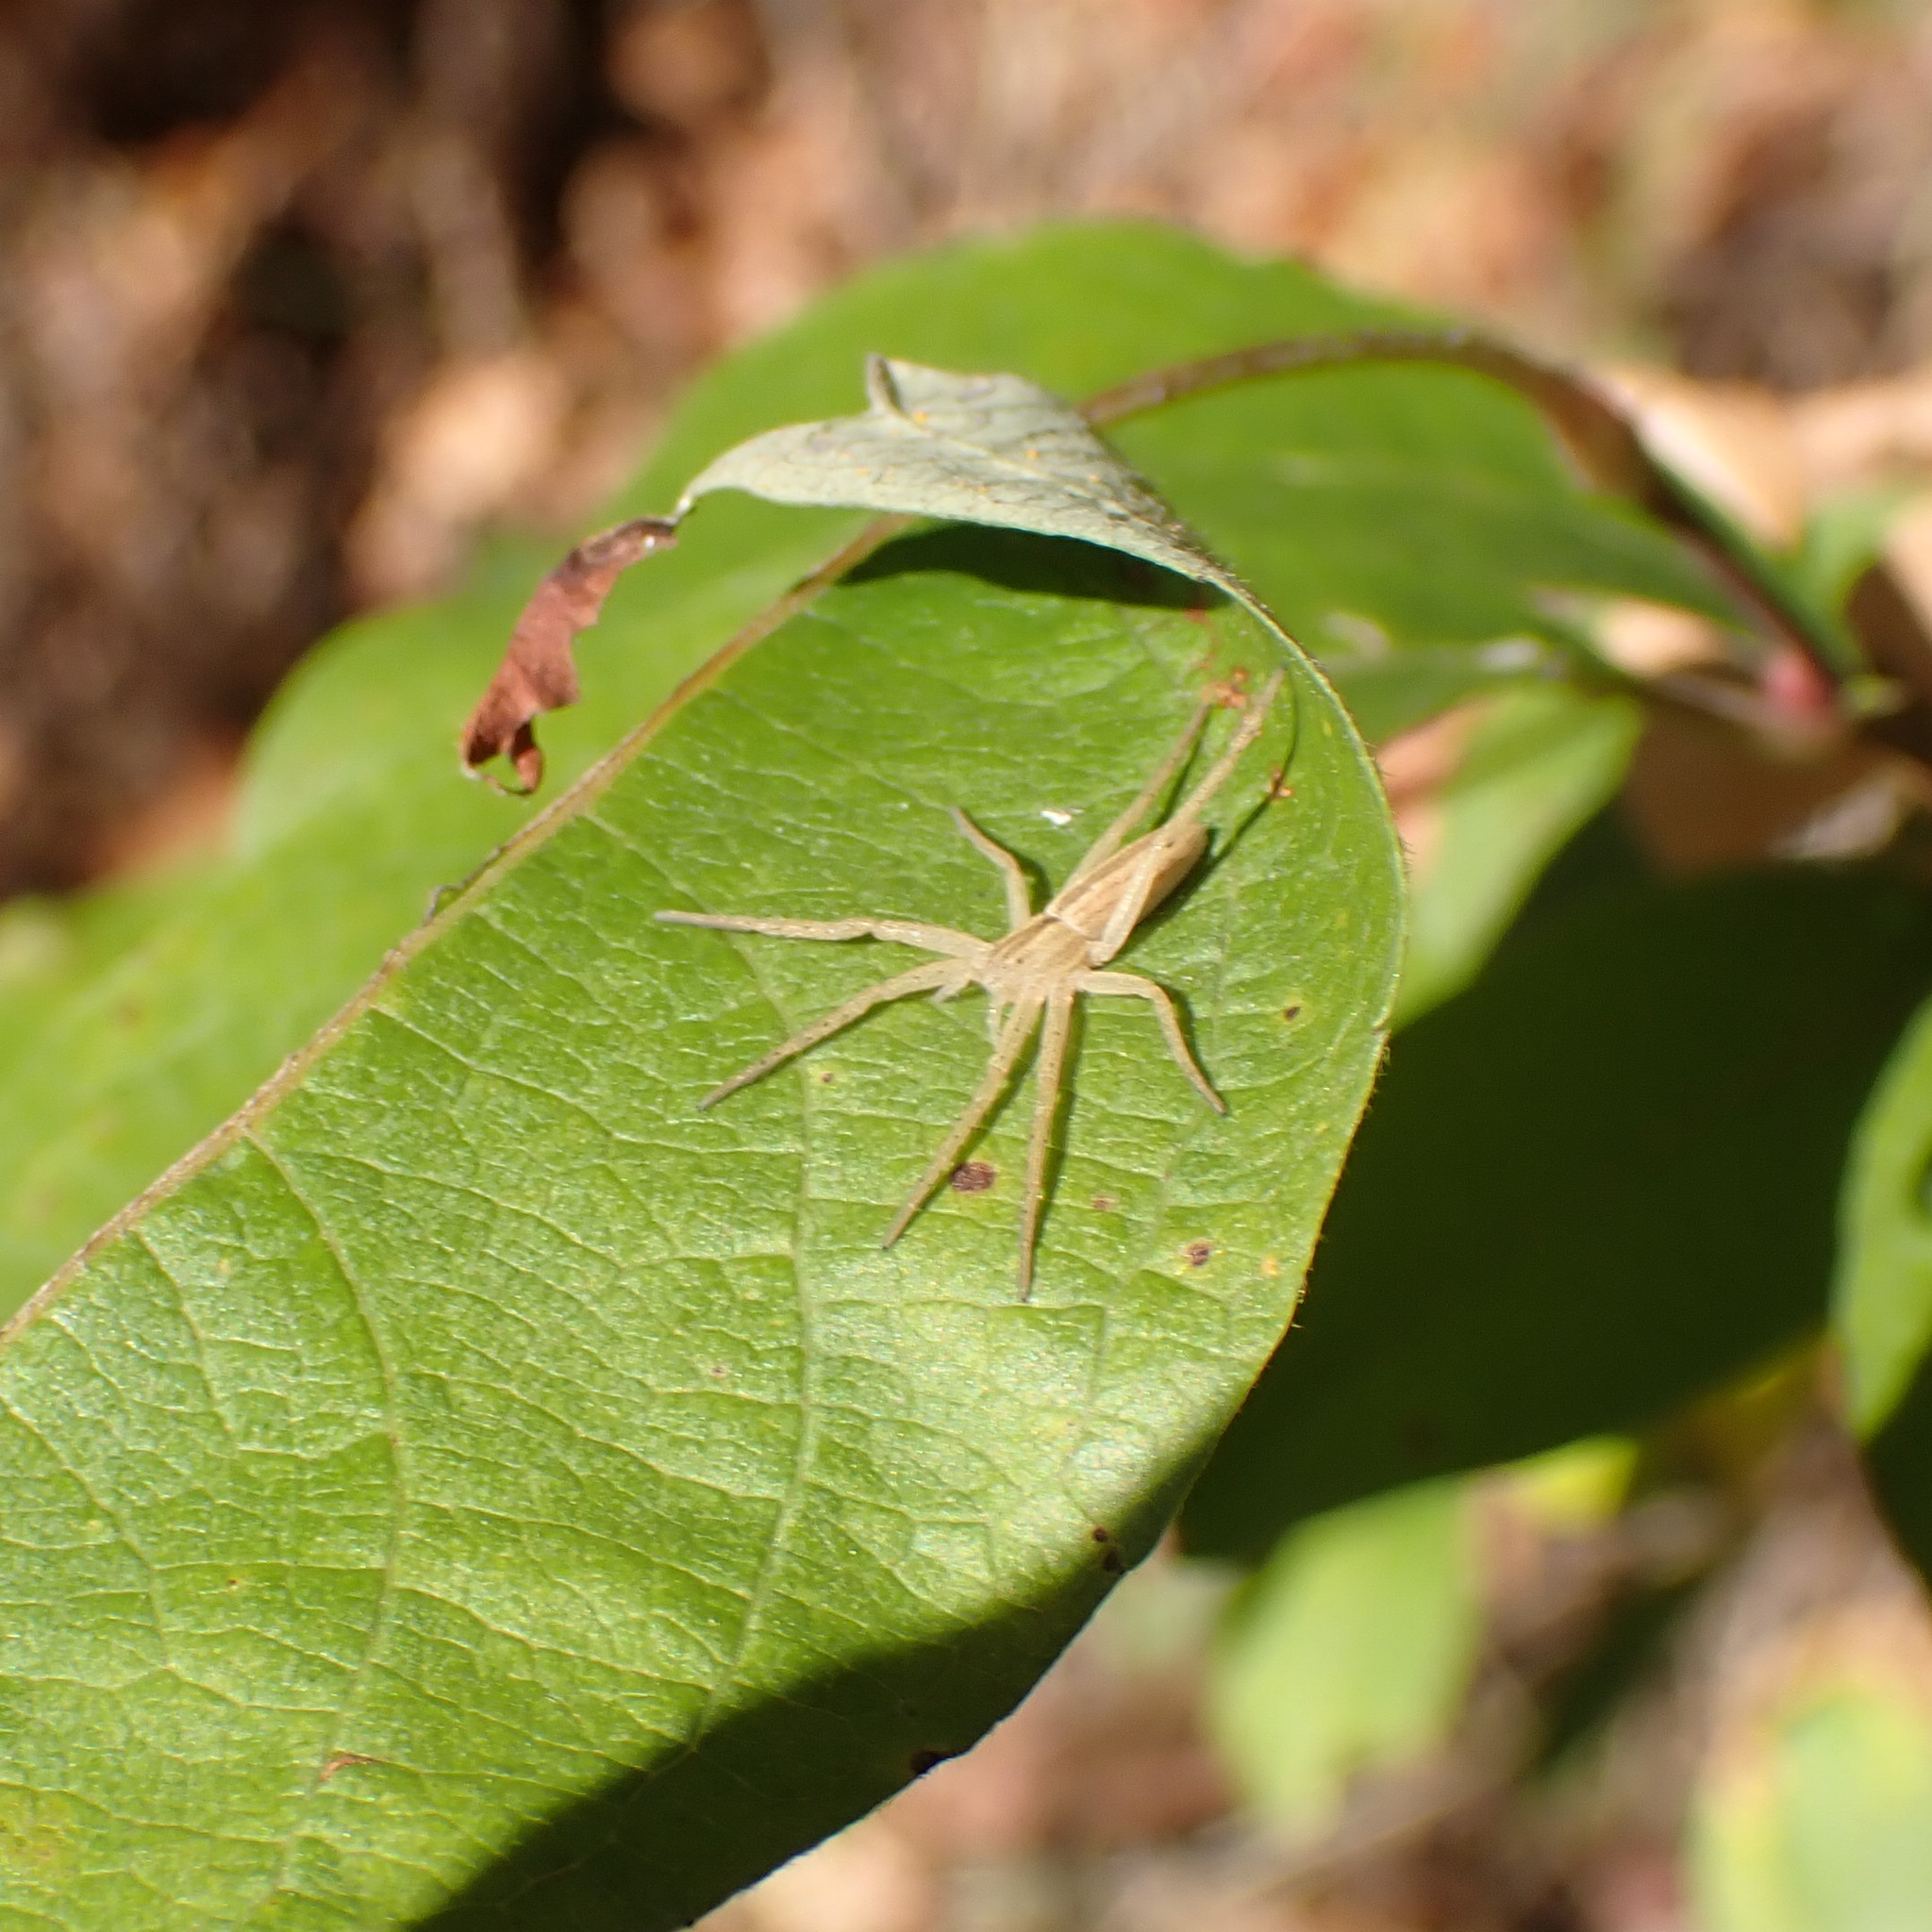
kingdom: Animalia
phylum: Arthropoda
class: Arachnida
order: Araneae
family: Philodromidae
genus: Tibellus
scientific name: Tibellus oblongus
